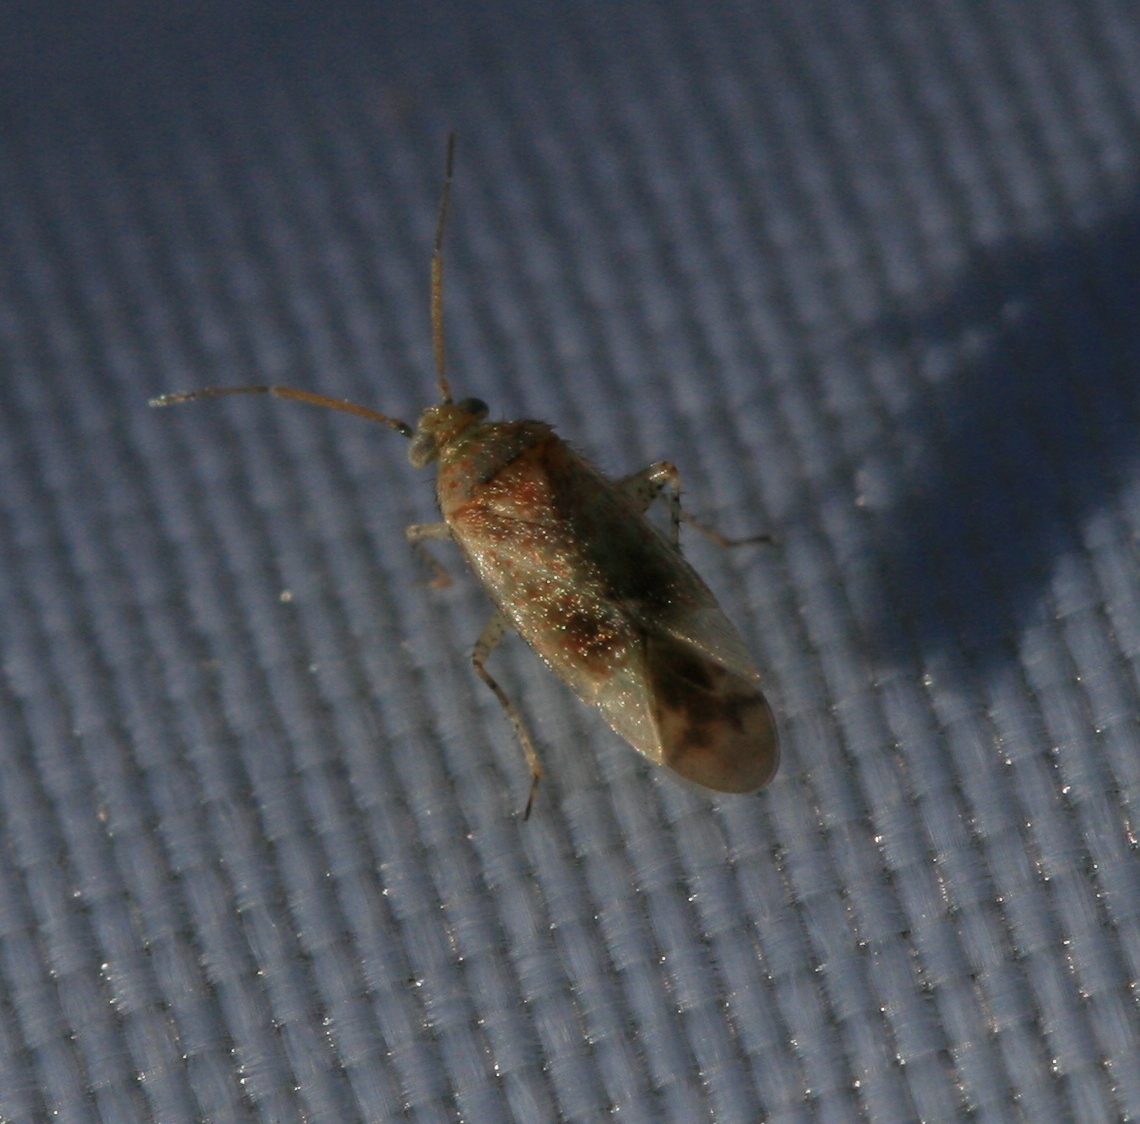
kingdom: Animalia
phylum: Arthropoda
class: Insecta
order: Hemiptera
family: Miridae
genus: Psallus
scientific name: Psallus haematodes
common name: Plant bug
